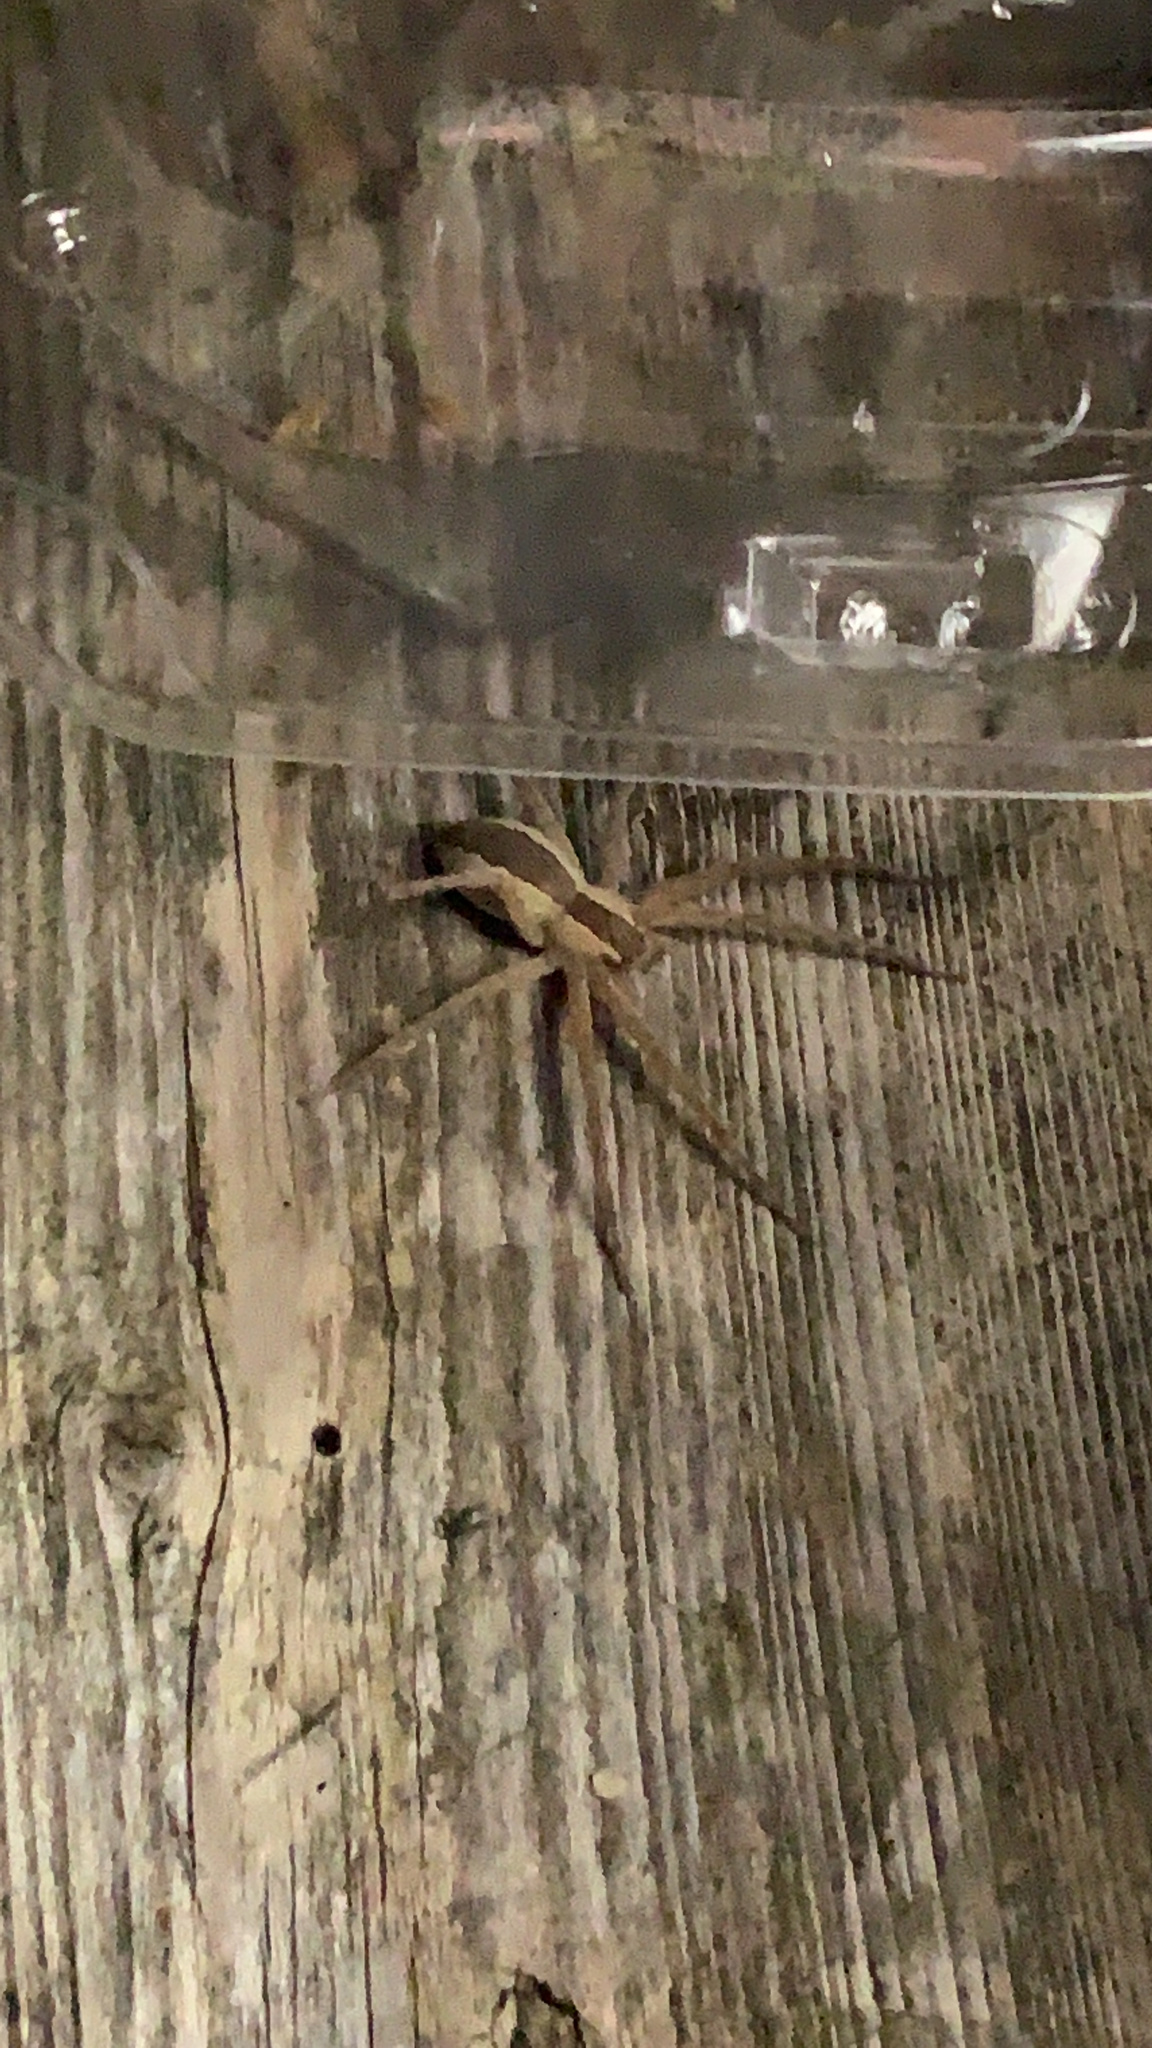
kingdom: Animalia
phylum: Arthropoda
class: Arachnida
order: Araneae
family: Pisauridae
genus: Pisaurina
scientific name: Pisaurina mira
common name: American nursery web spider
